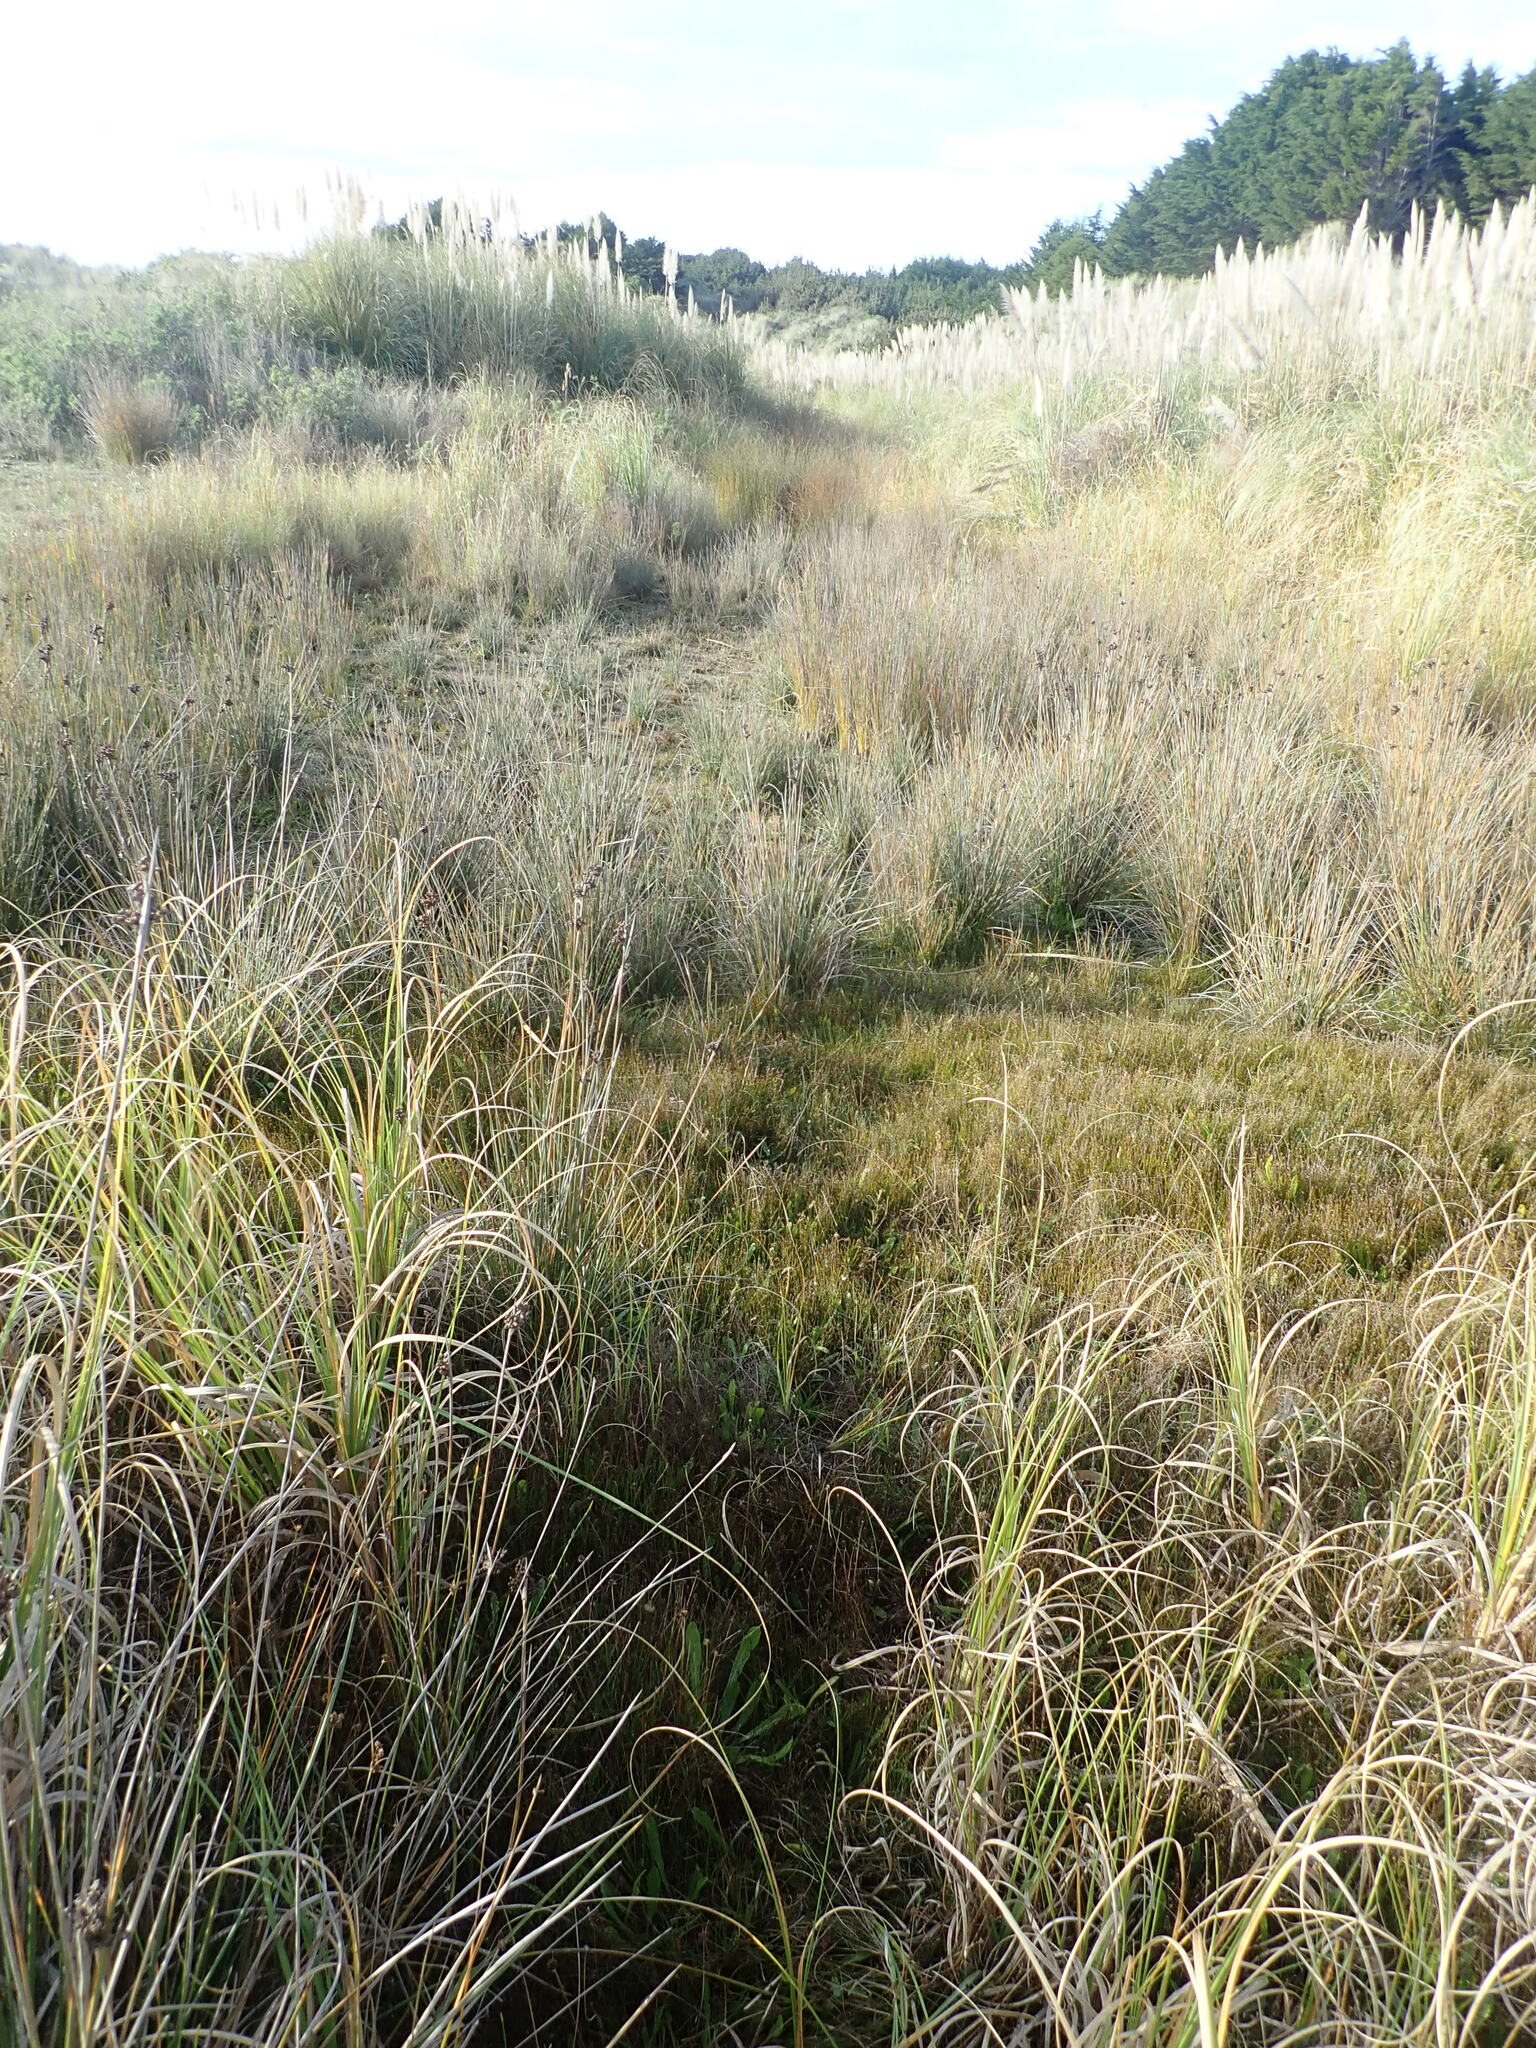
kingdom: Plantae
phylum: Tracheophyta
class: Liliopsida
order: Poales
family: Juncaceae
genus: Juncus
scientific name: Juncus acutus
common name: Sharp rush
